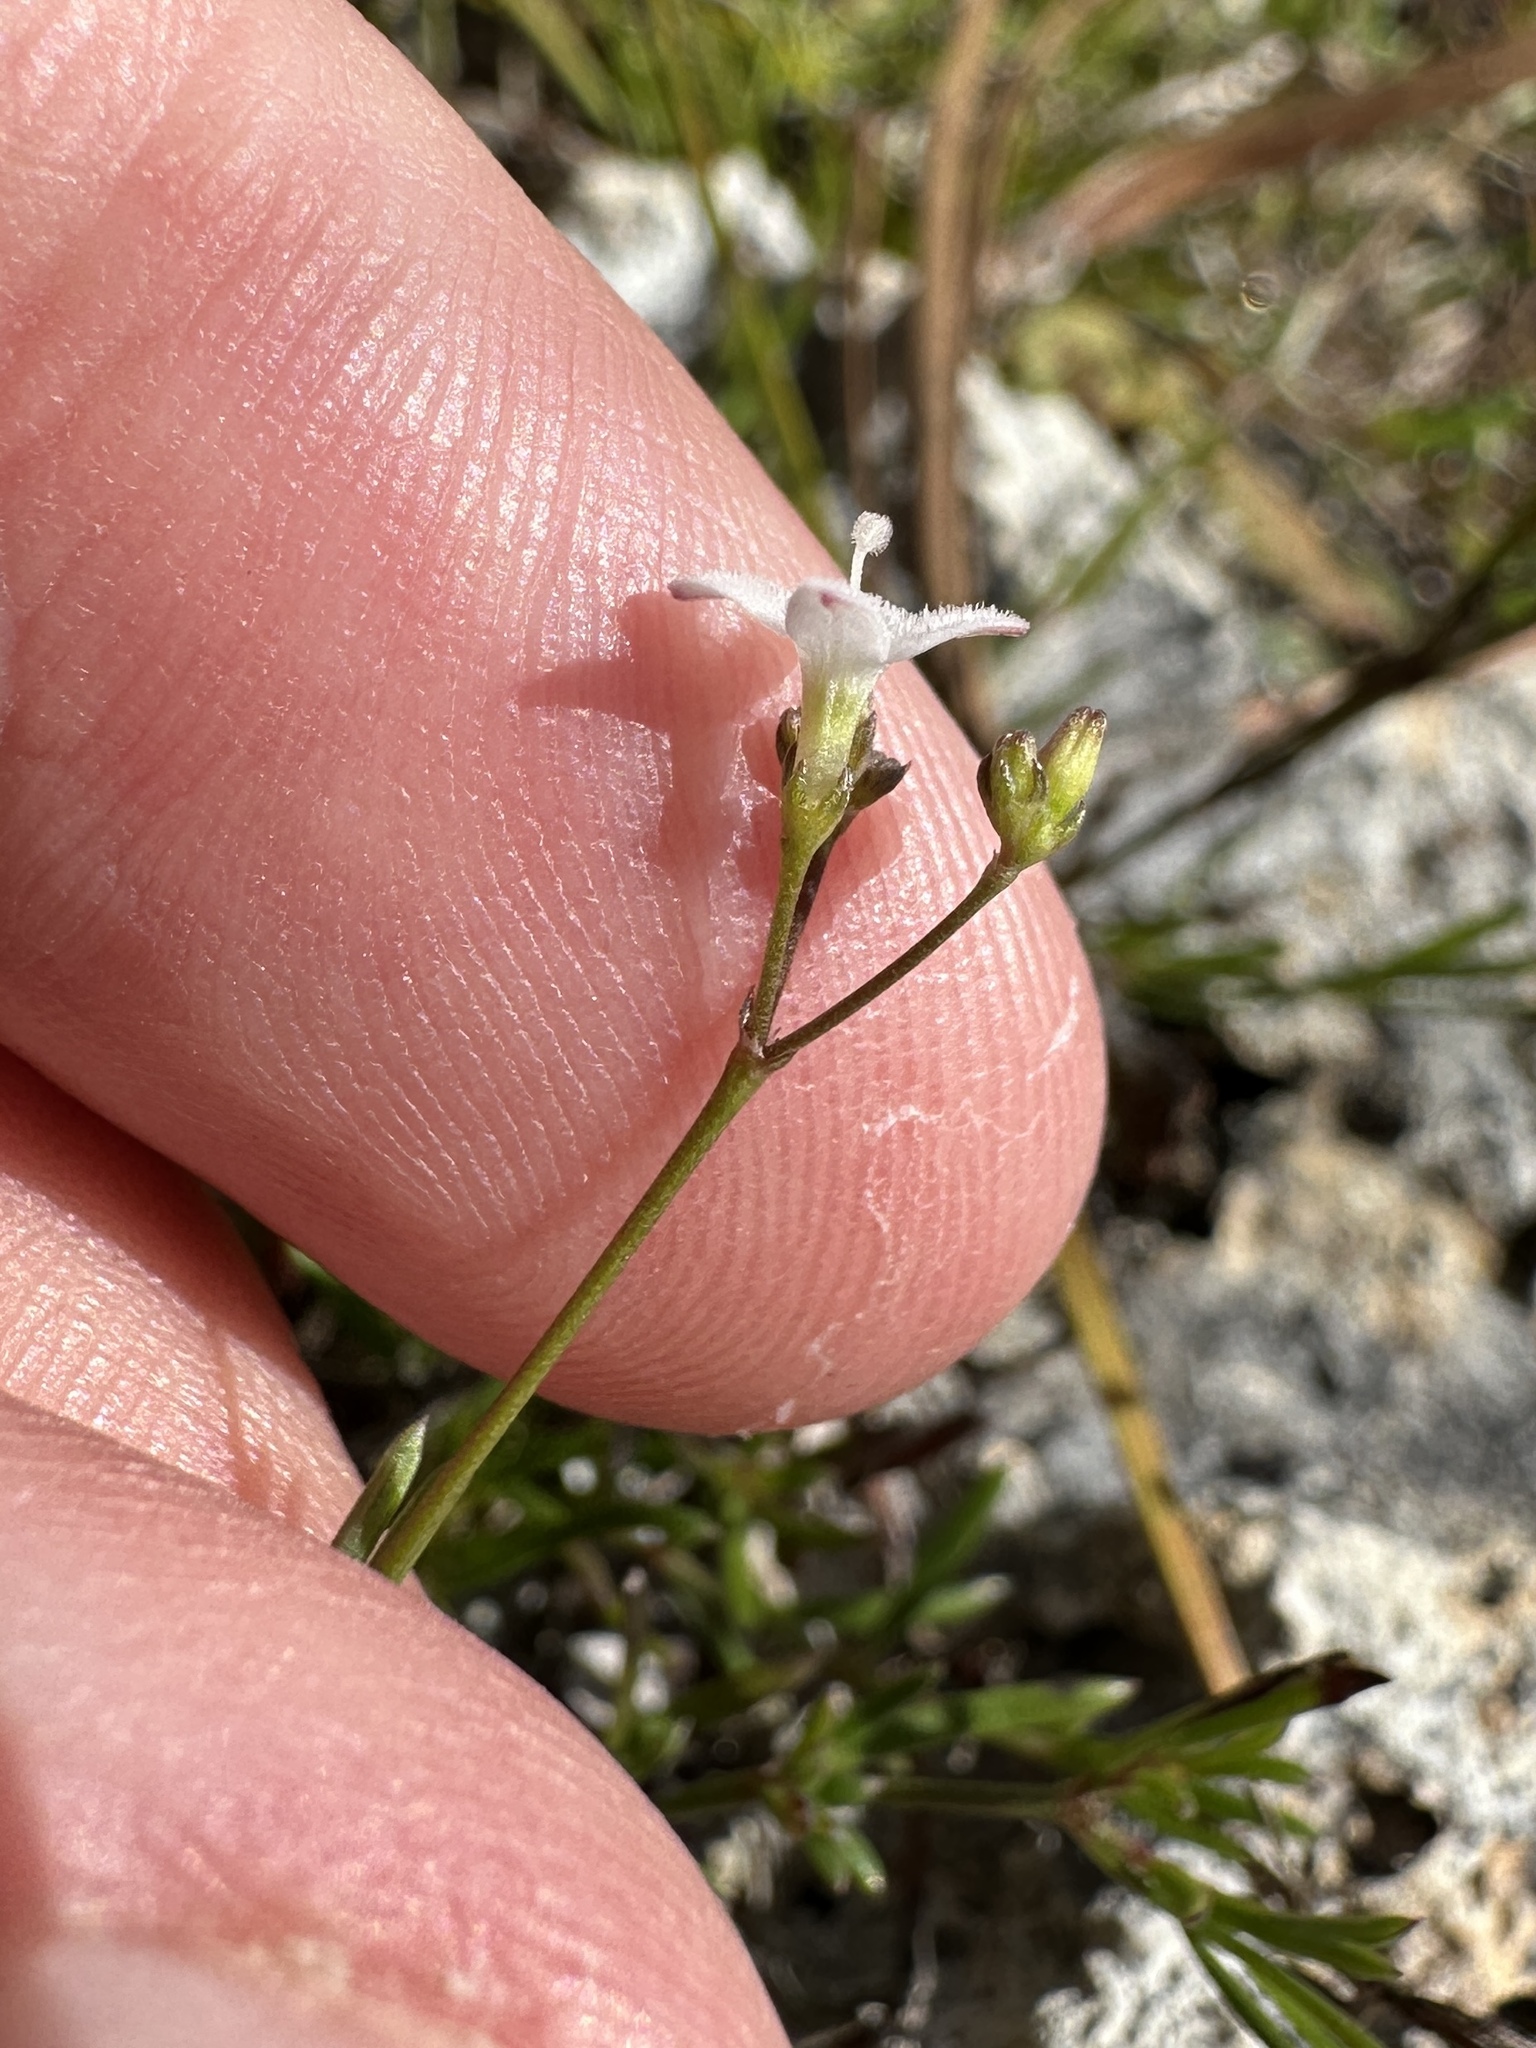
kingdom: Plantae
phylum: Tracheophyta
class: Magnoliopsida
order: Gentianales
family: Rubiaceae
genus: Stenaria
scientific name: Stenaria nigricans
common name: Diamondflowers
